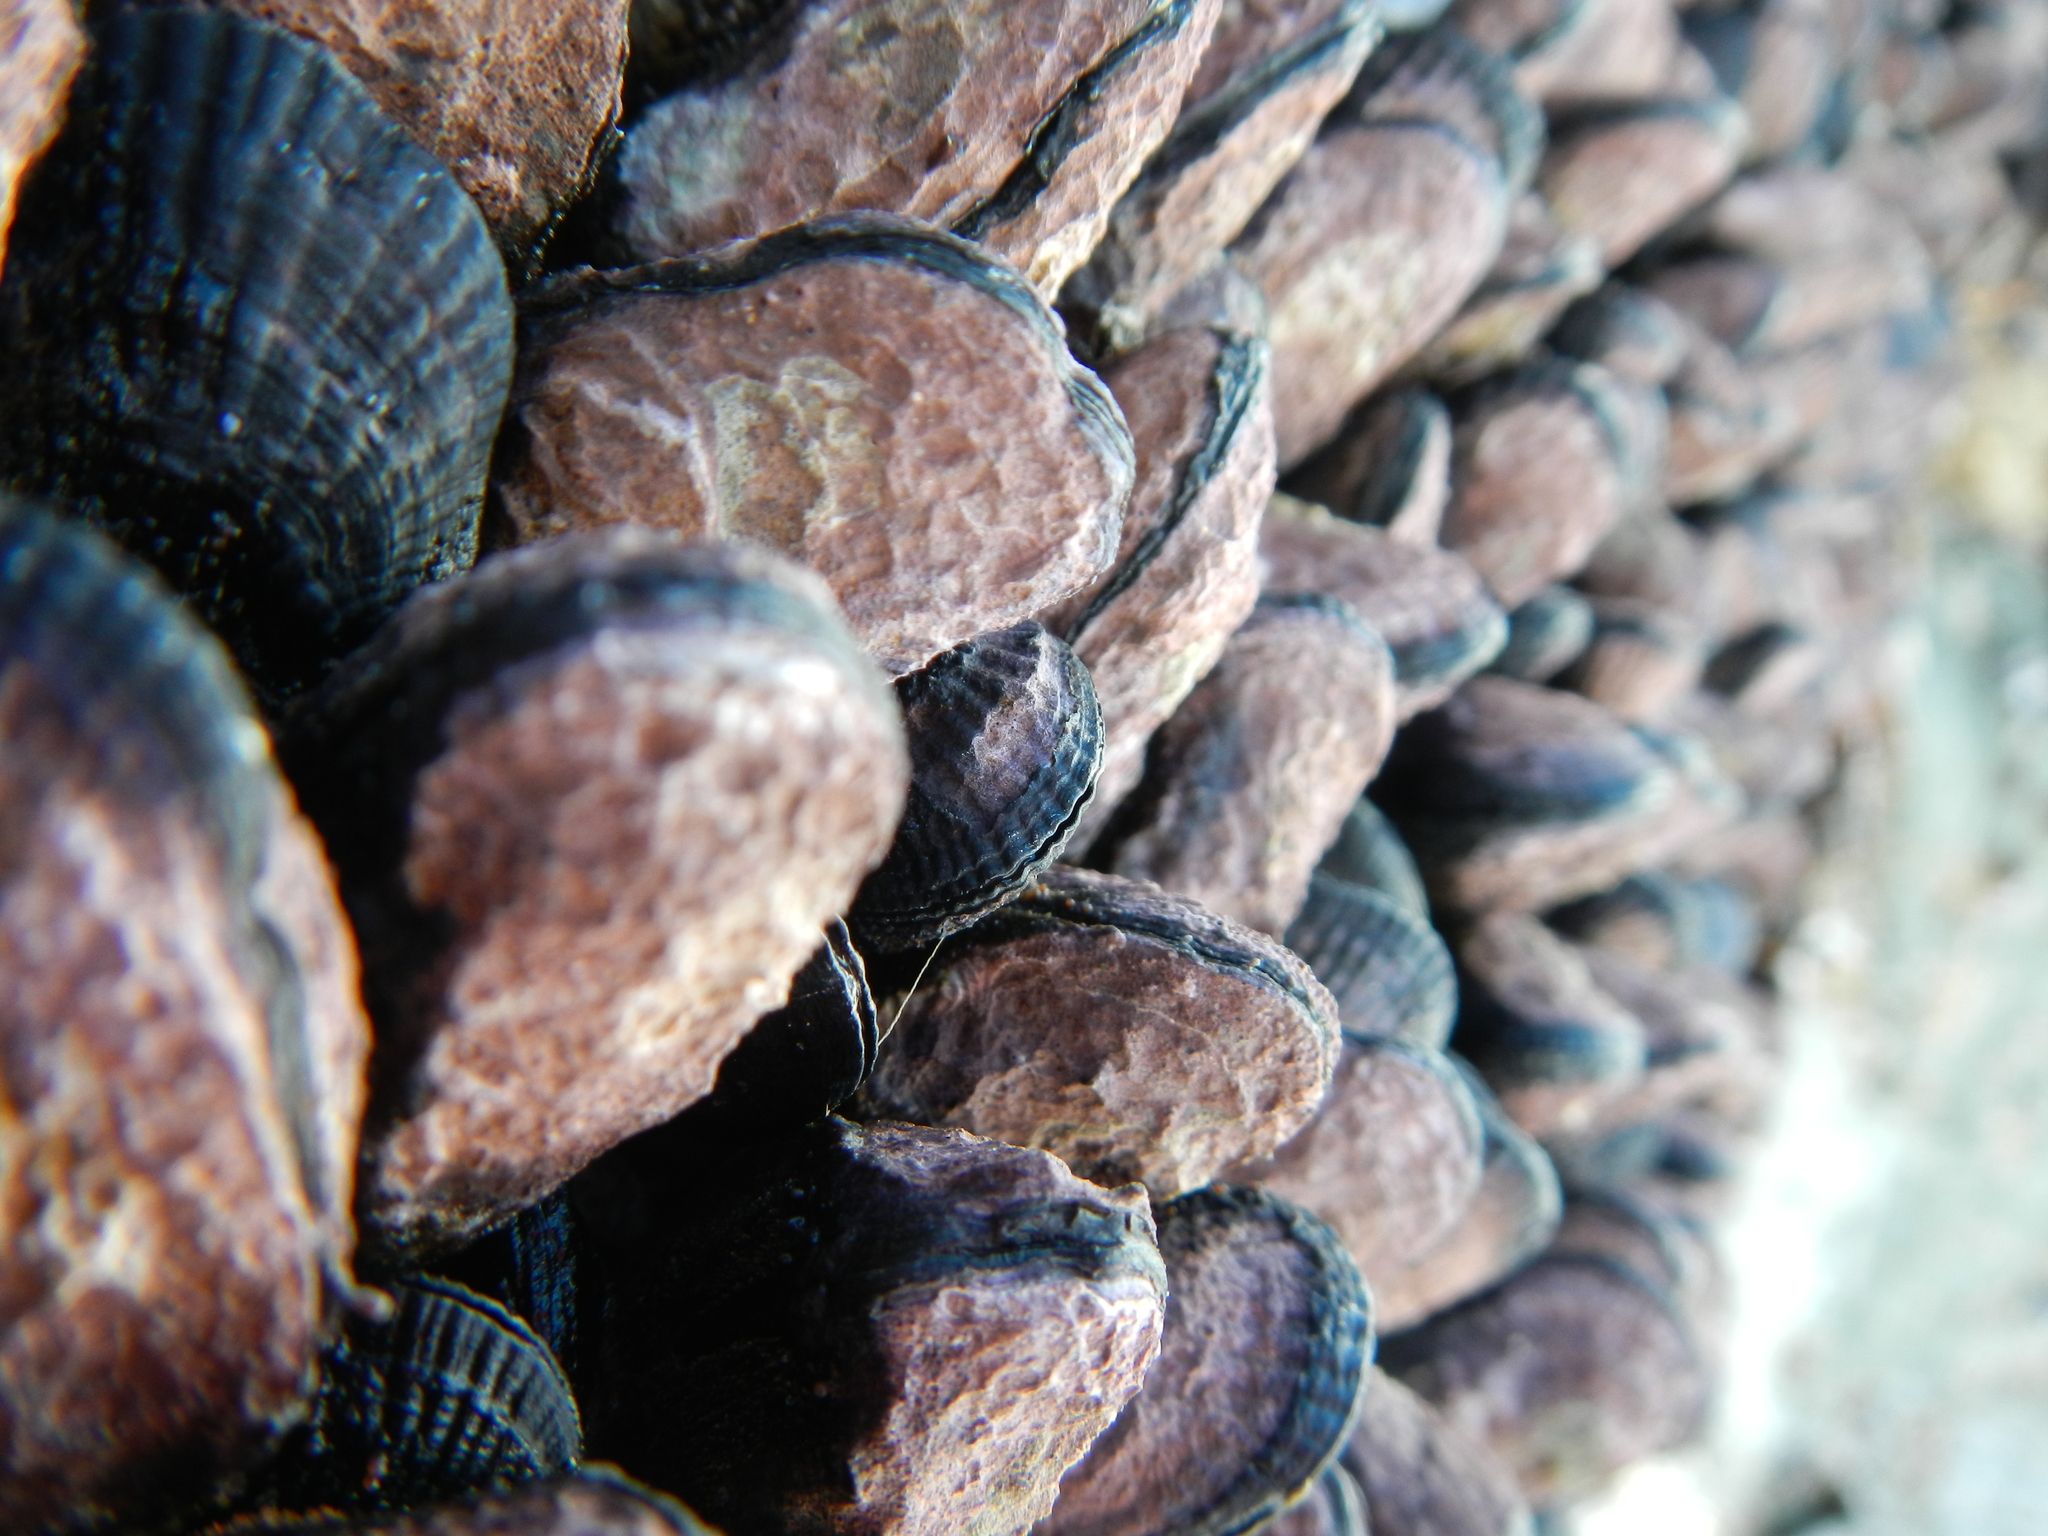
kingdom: Animalia
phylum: Mollusca
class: Bivalvia
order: Mytilida
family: Mytilidae
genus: Perumytilus
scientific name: Perumytilus purpuratus
